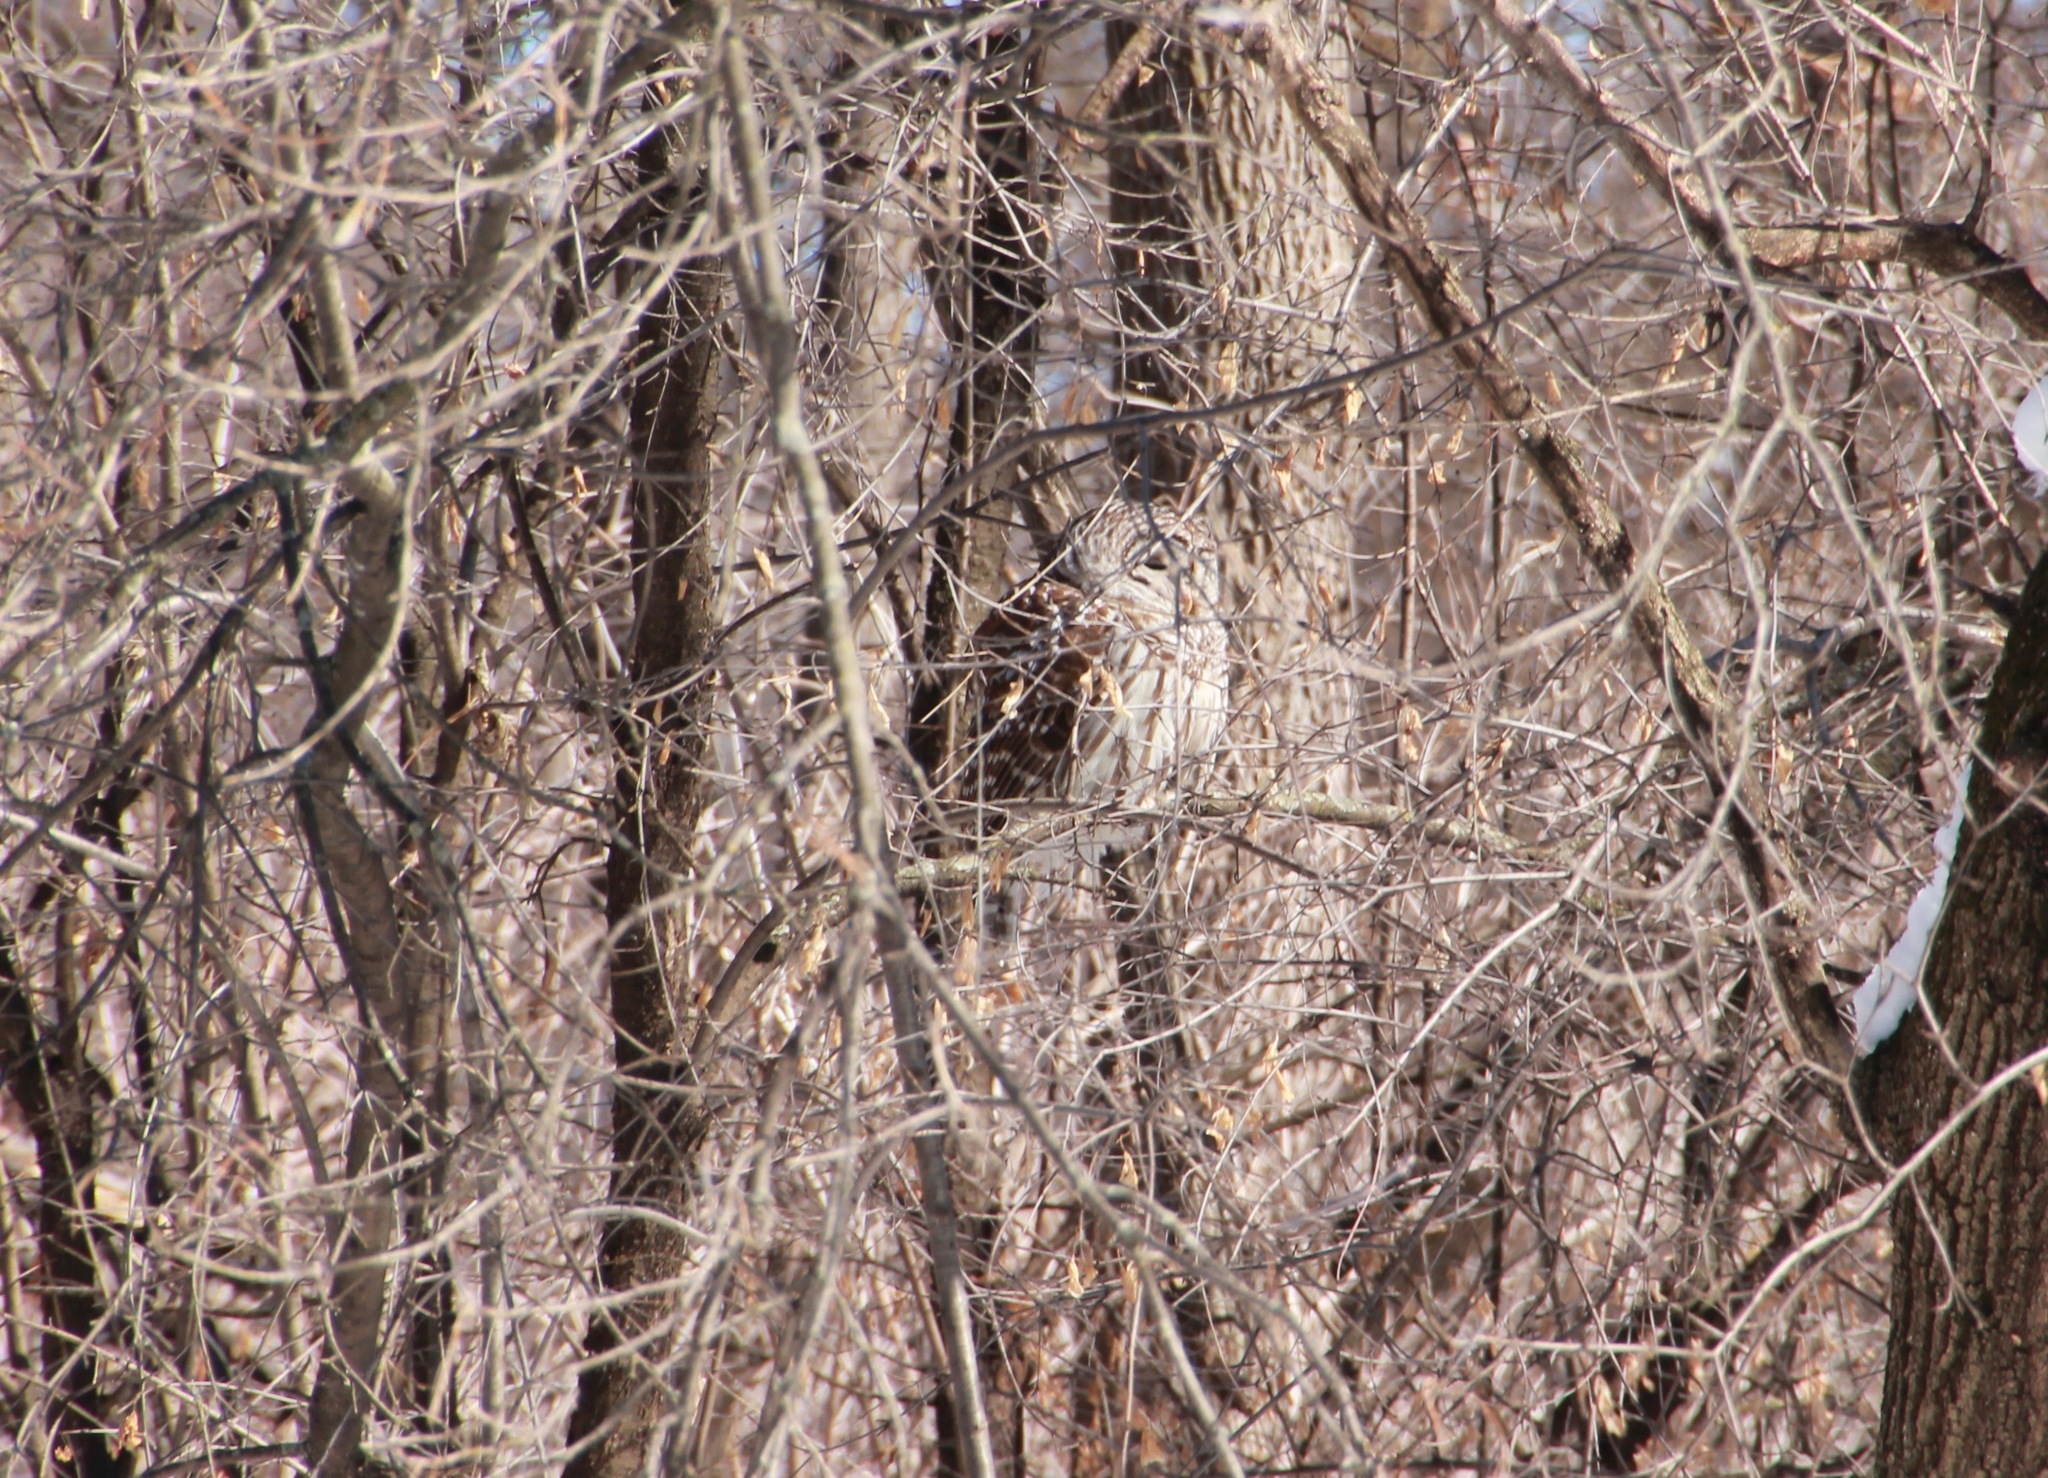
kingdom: Animalia
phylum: Chordata
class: Aves
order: Strigiformes
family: Strigidae
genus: Strix
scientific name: Strix varia
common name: Barred owl
